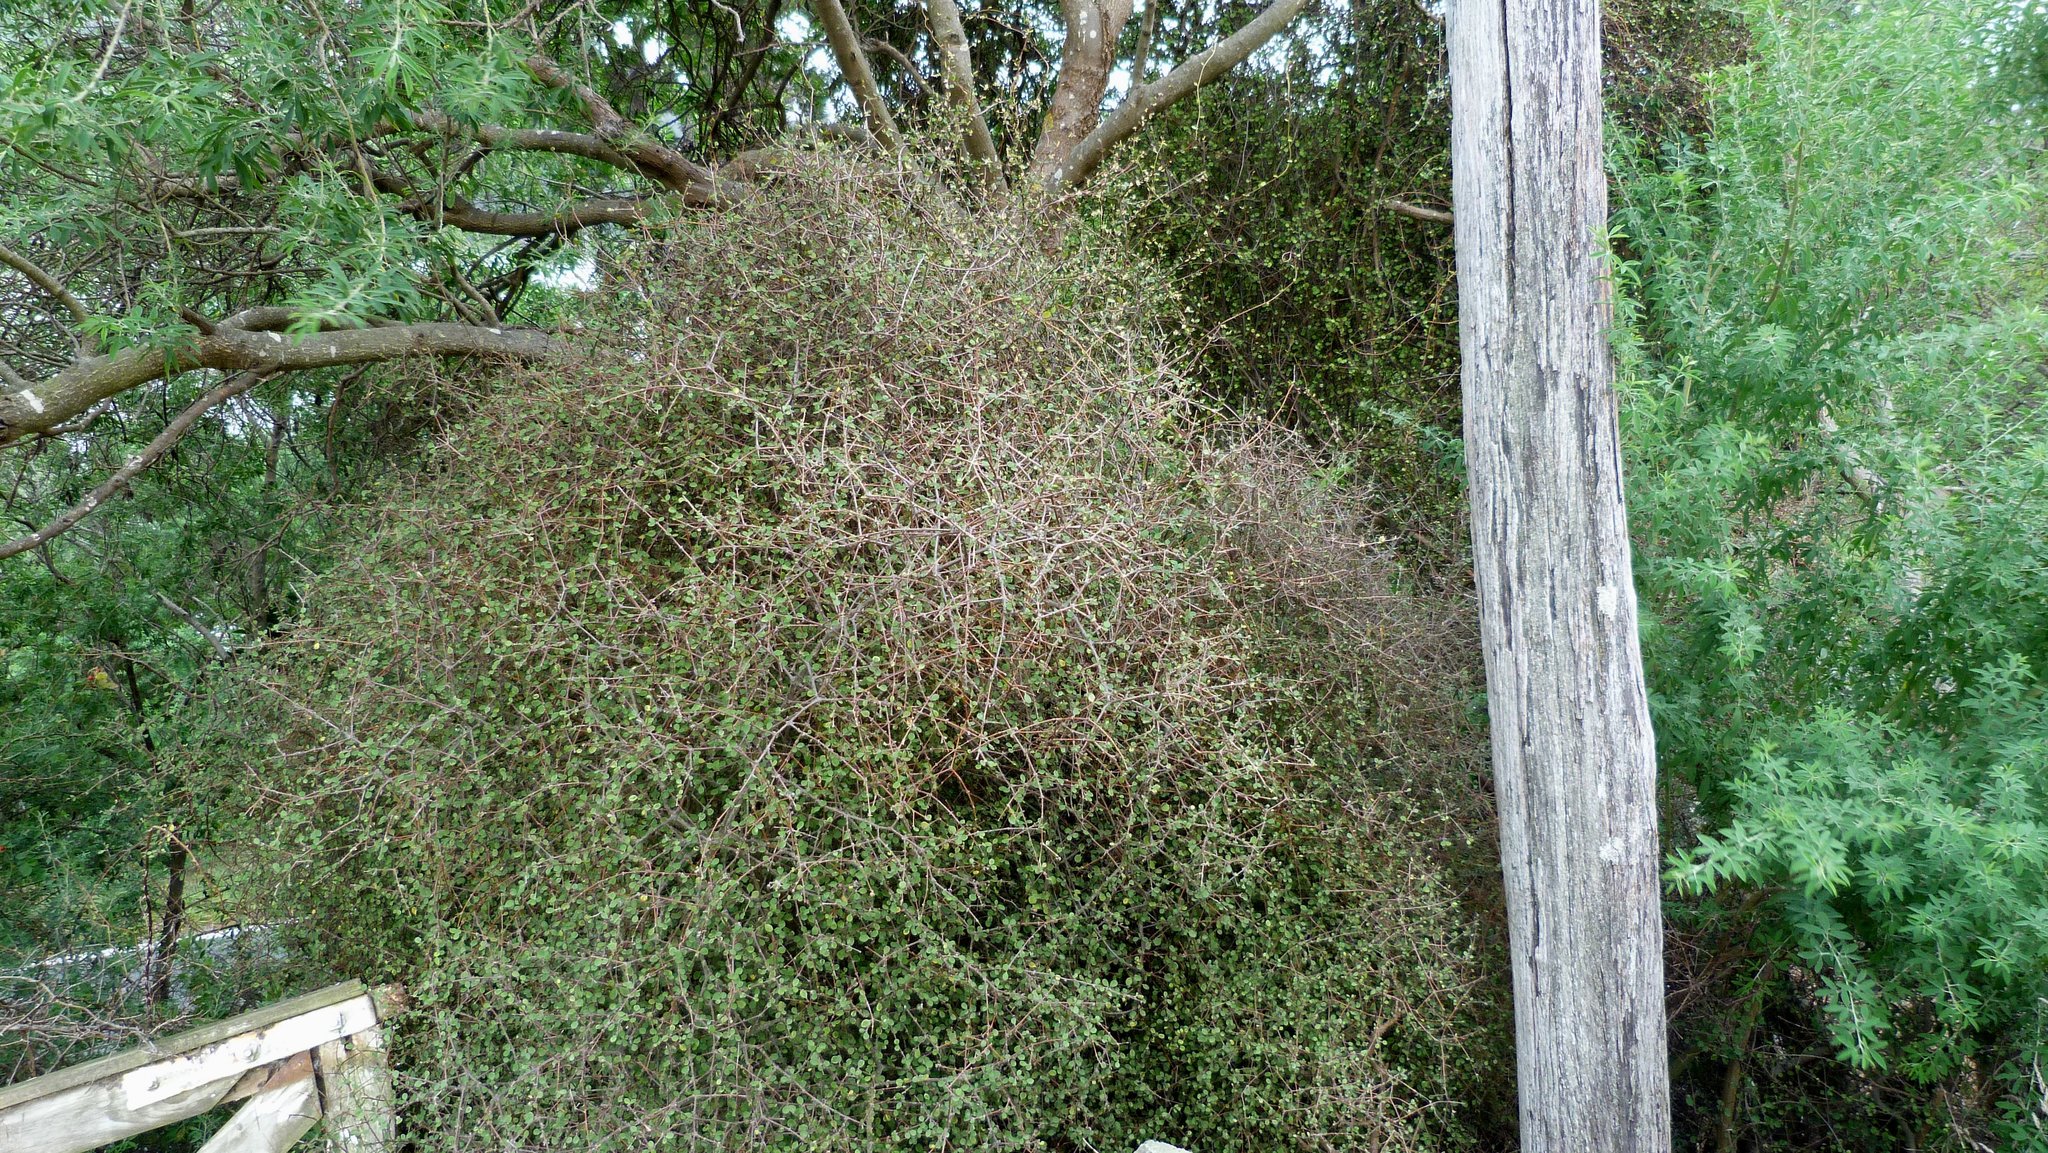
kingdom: Plantae
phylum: Tracheophyta
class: Magnoliopsida
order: Gentianales
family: Rubiaceae
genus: Coprosma
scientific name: Coprosma crassifolia
